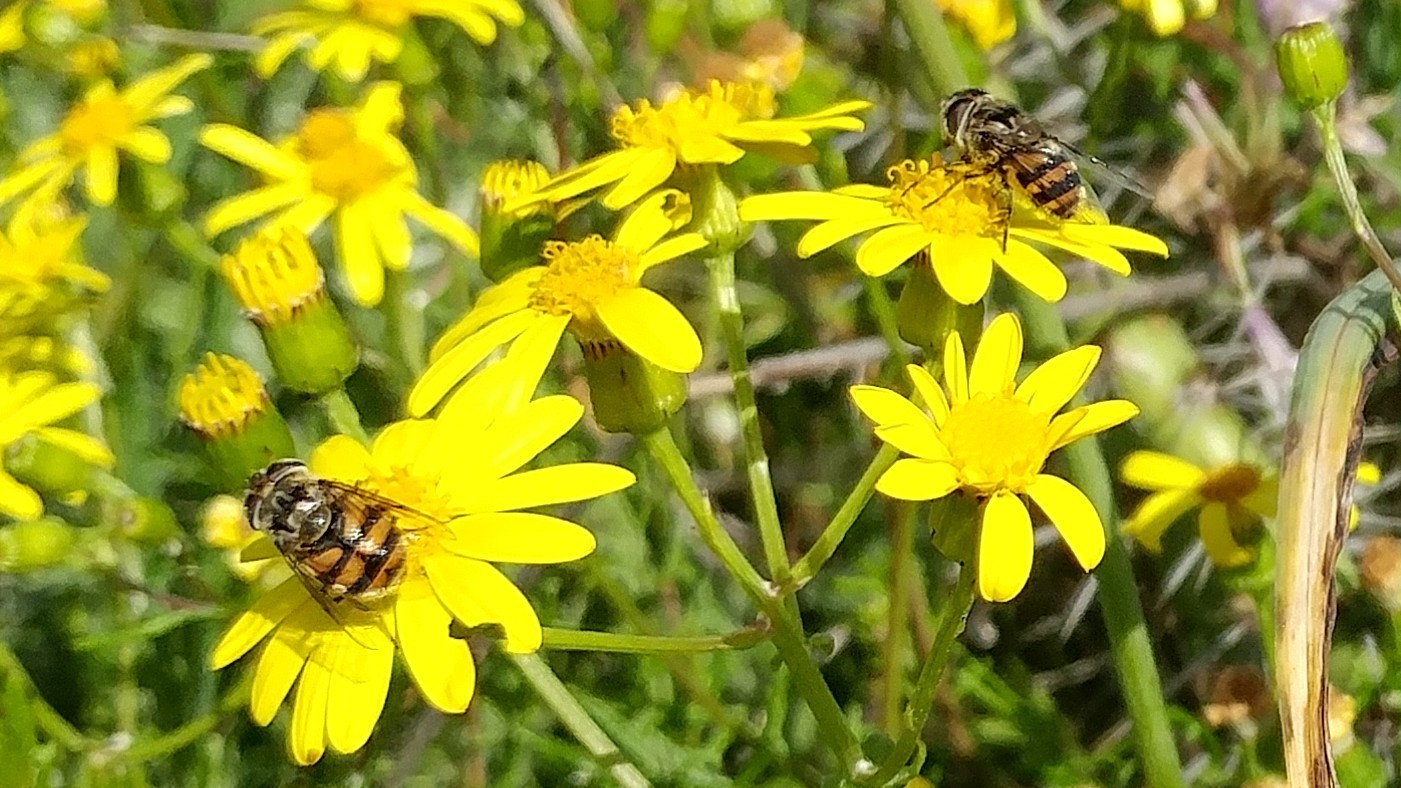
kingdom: Animalia
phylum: Arthropoda
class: Insecta
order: Diptera
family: Syrphidae
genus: Copestylum
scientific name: Copestylum avidum
